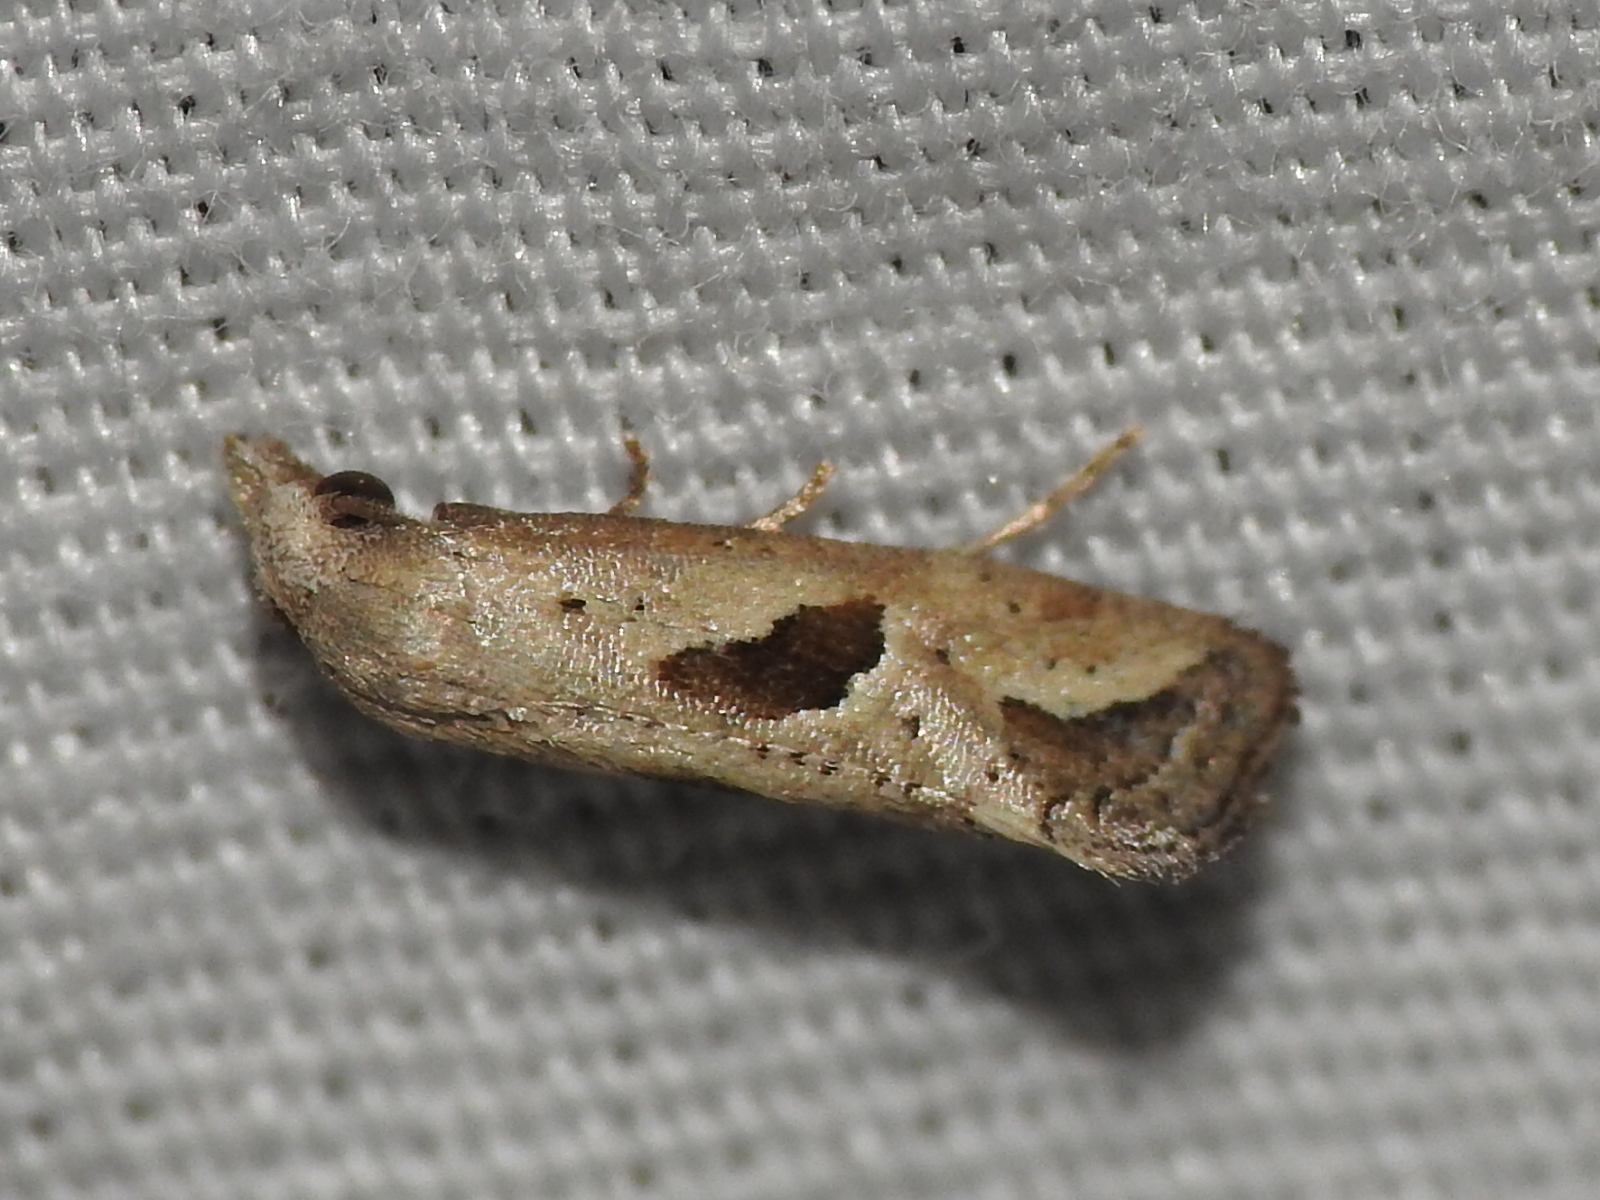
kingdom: Animalia
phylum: Arthropoda
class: Insecta
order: Lepidoptera
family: Tortricidae
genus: Eugnosta
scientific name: Eugnosta bimaculana
